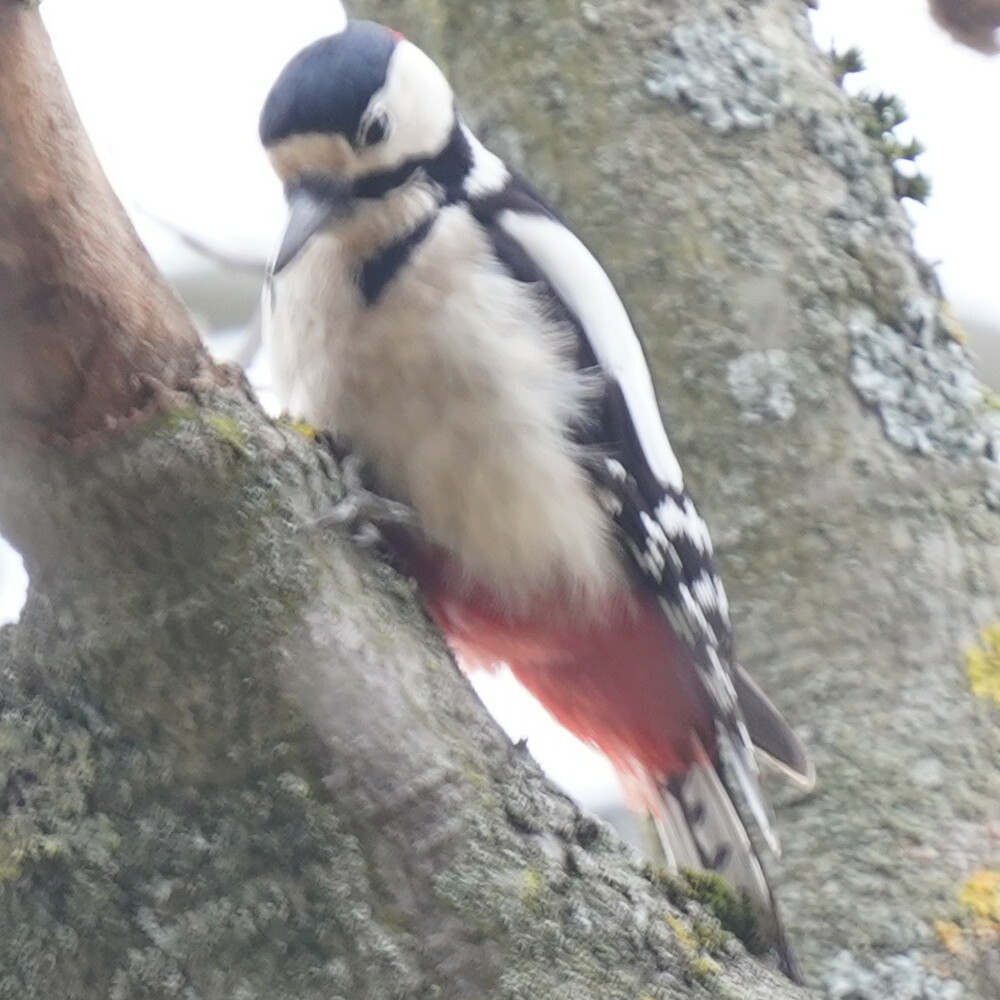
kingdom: Animalia
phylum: Chordata
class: Aves
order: Piciformes
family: Picidae
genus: Dendrocopos
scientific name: Dendrocopos major
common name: Great spotted woodpecker
